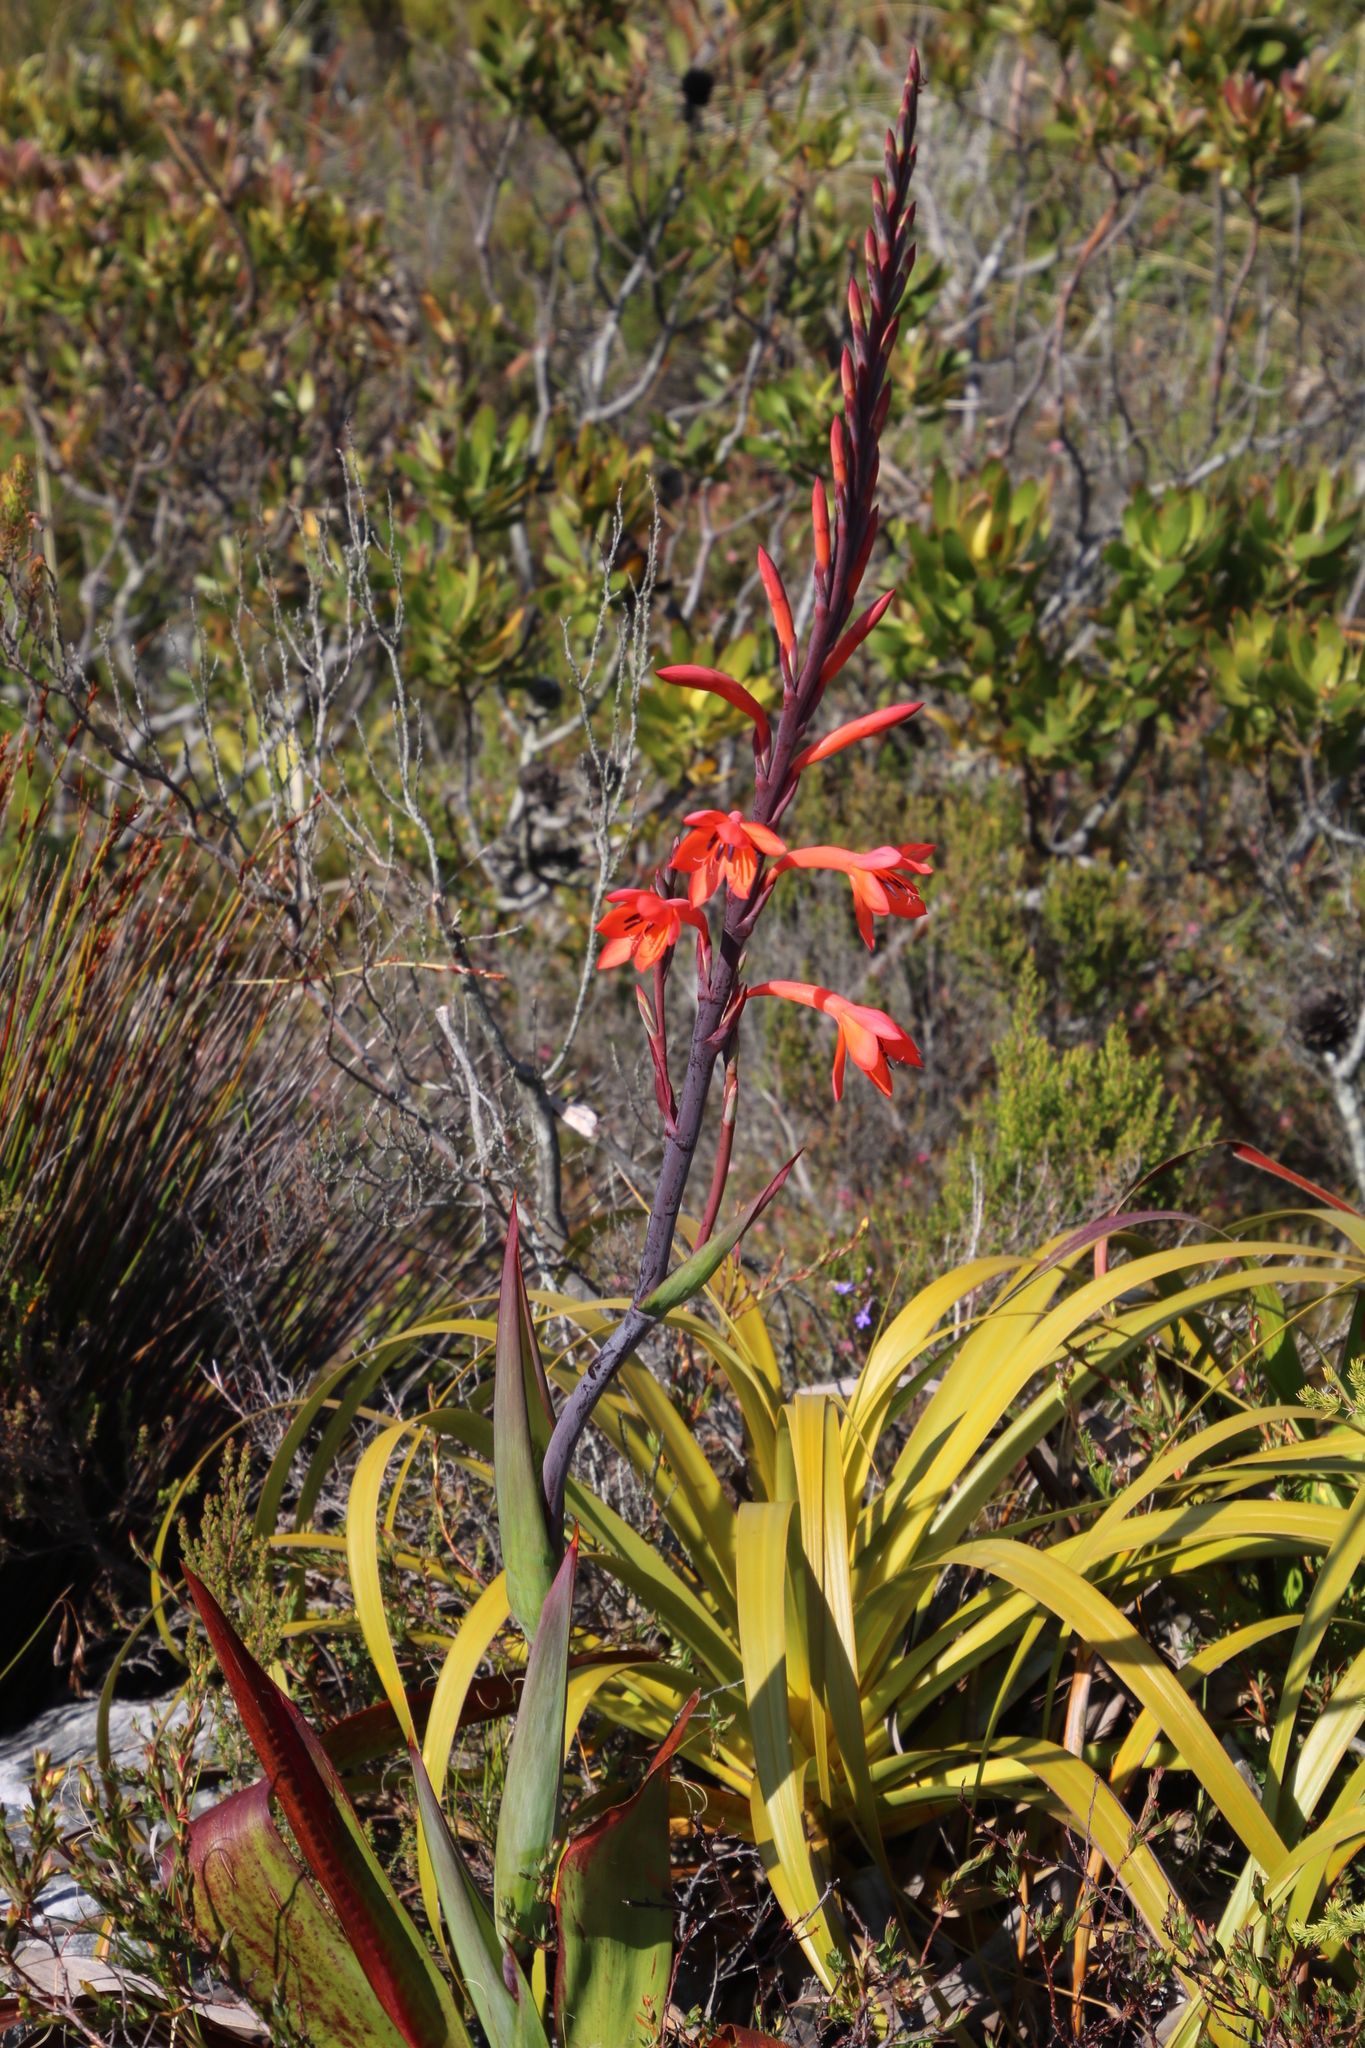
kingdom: Plantae
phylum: Tracheophyta
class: Liliopsida
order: Asparagales
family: Iridaceae
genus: Watsonia
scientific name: Watsonia tabularis
